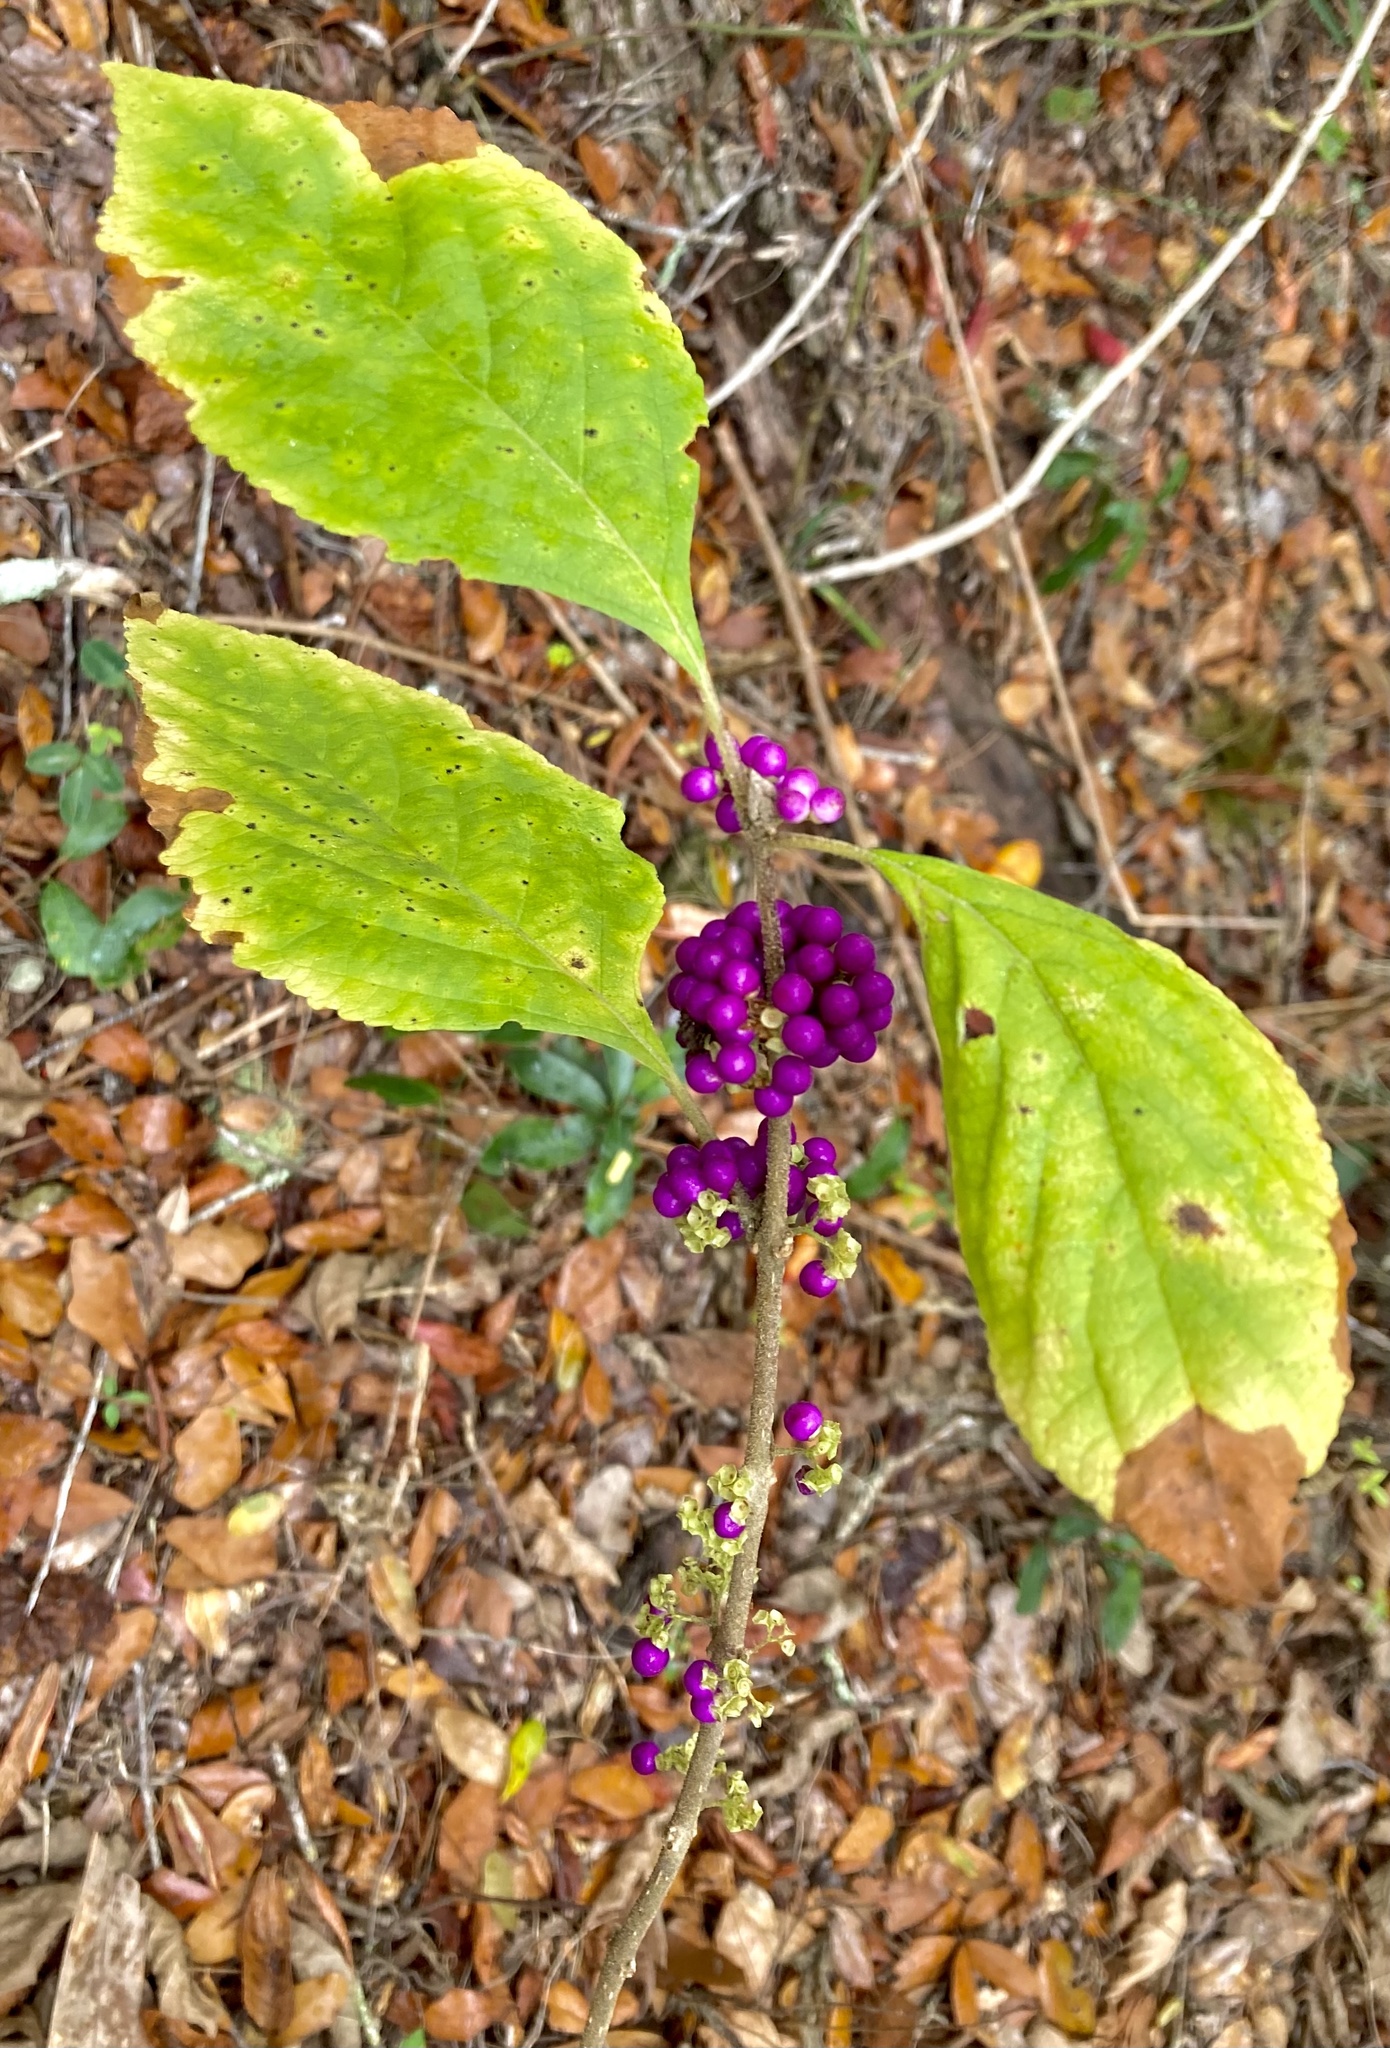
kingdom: Plantae
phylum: Tracheophyta
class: Magnoliopsida
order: Lamiales
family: Lamiaceae
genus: Callicarpa
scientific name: Callicarpa americana
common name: American beautyberry
